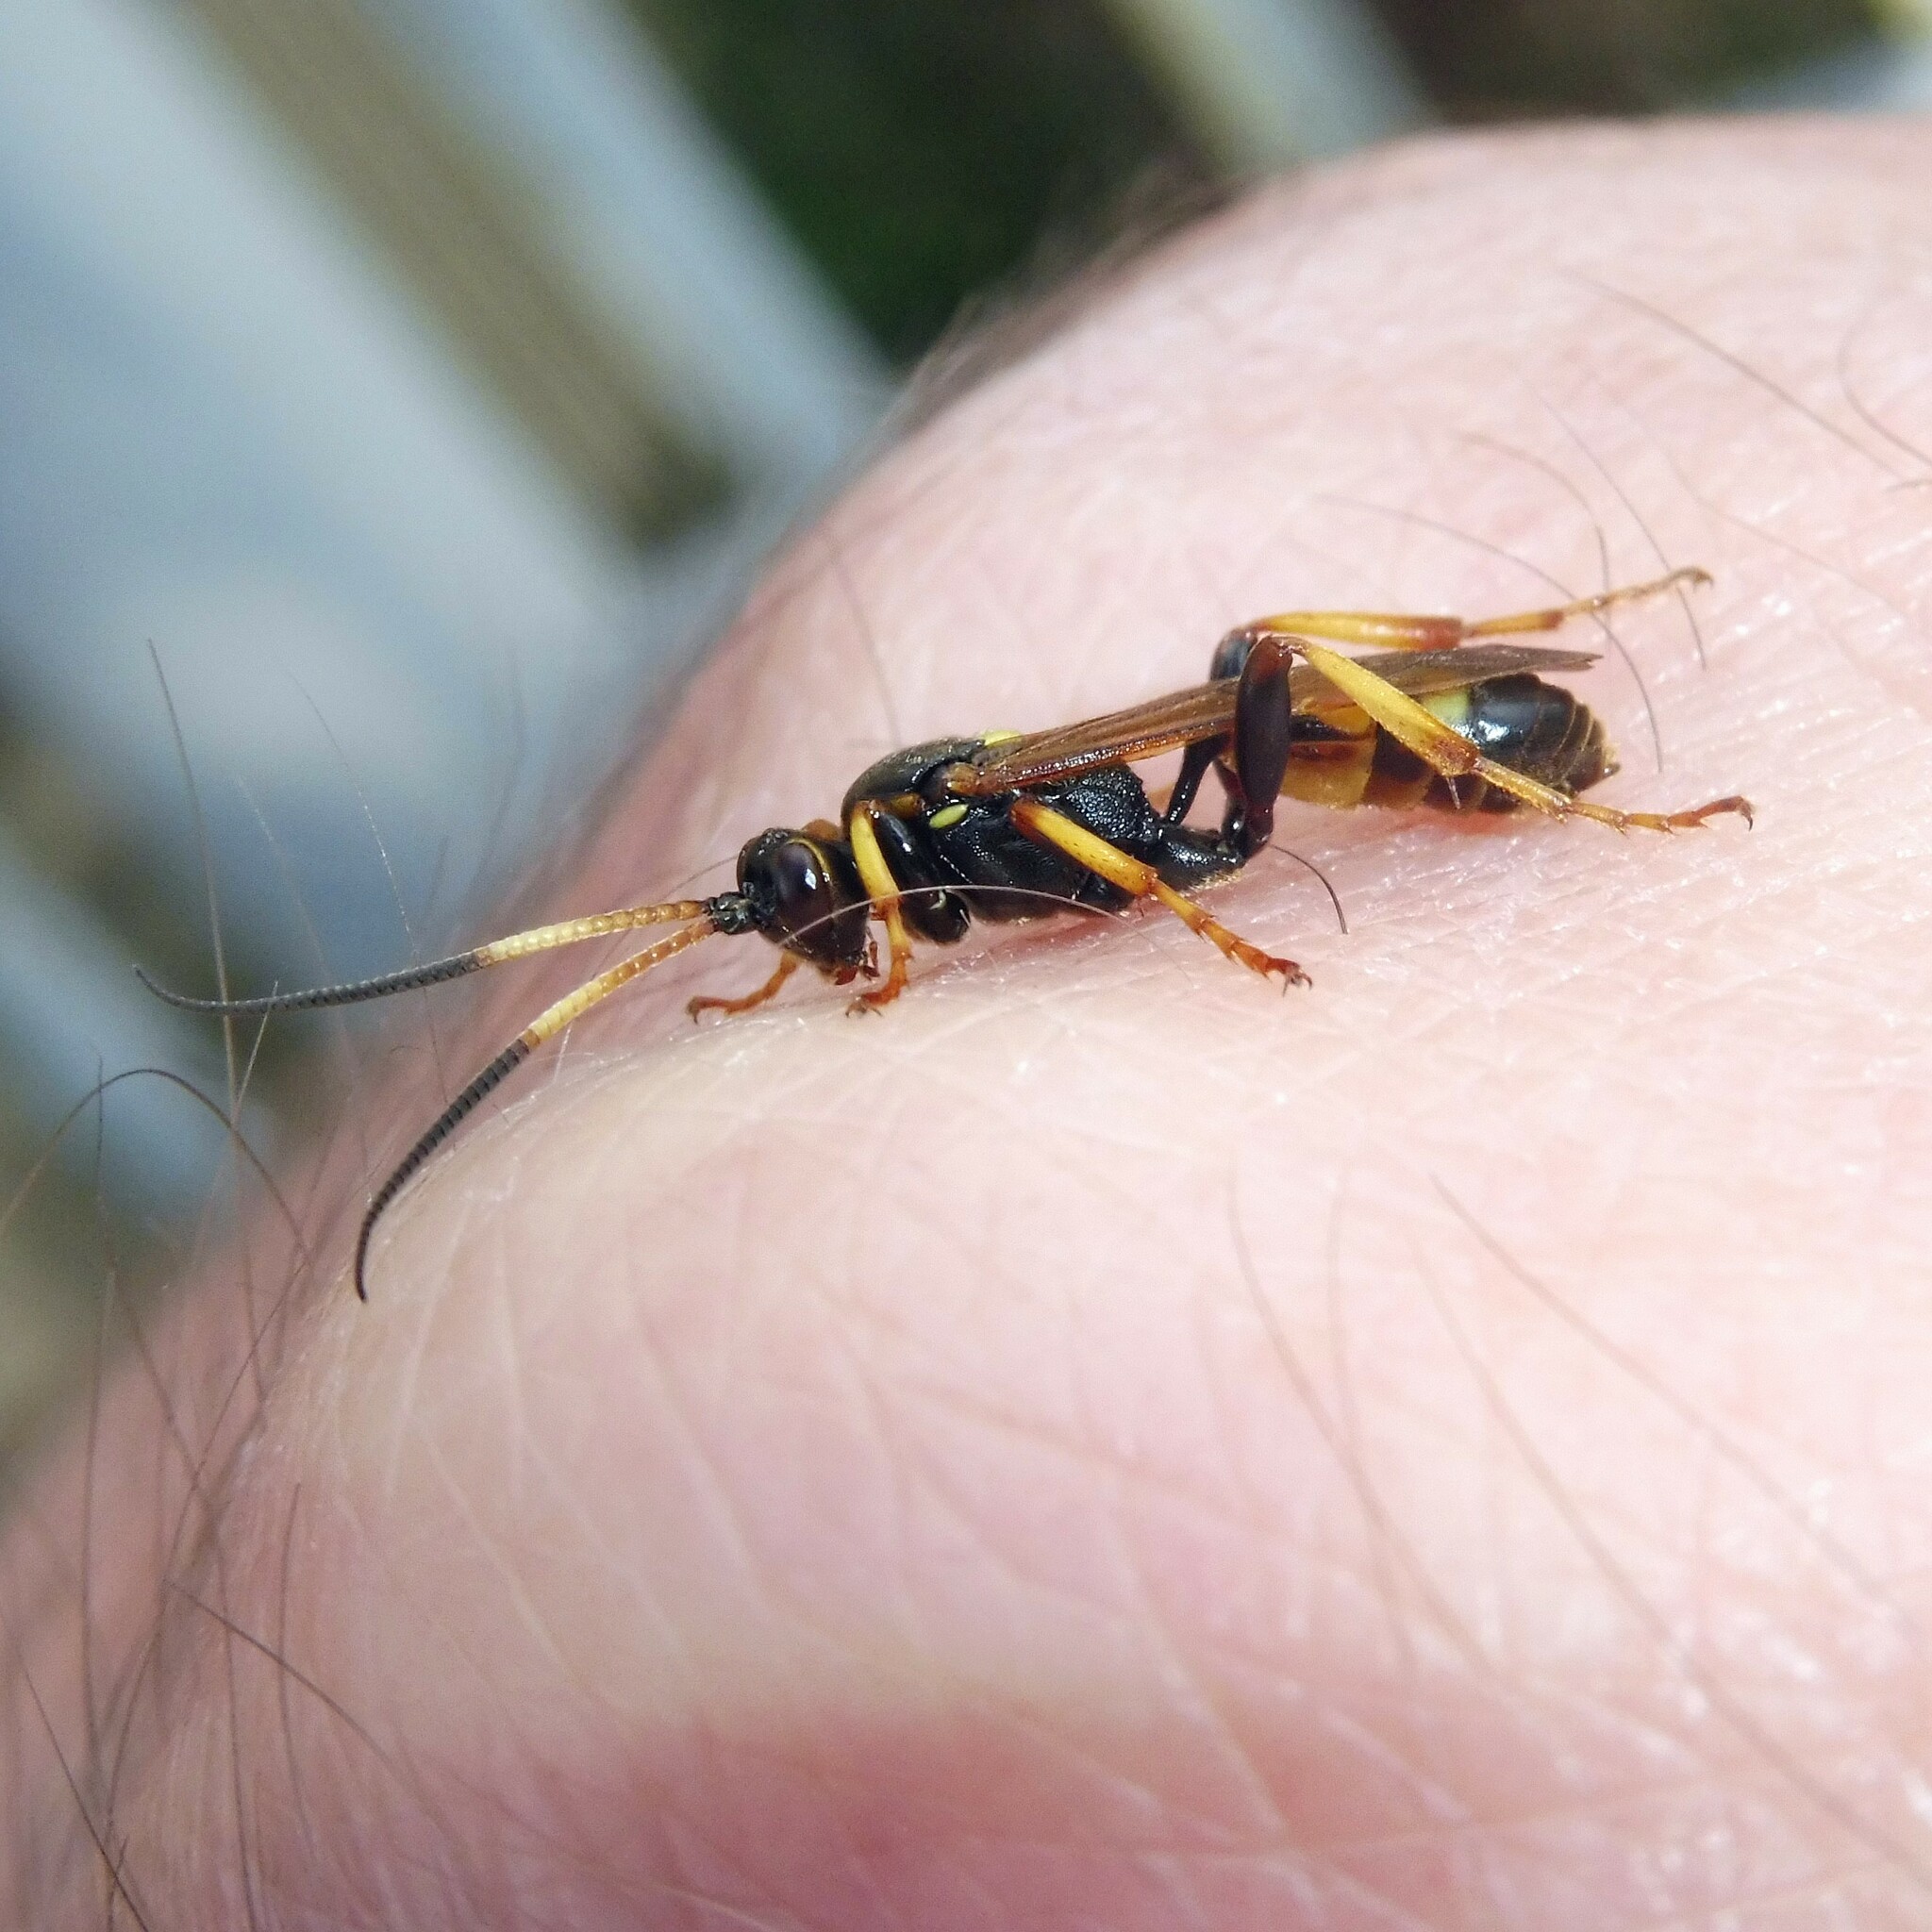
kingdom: Animalia
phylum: Arthropoda
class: Insecta
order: Hymenoptera
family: Ichneumonidae
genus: Eutanyacra
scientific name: Eutanyacra crispatoria
